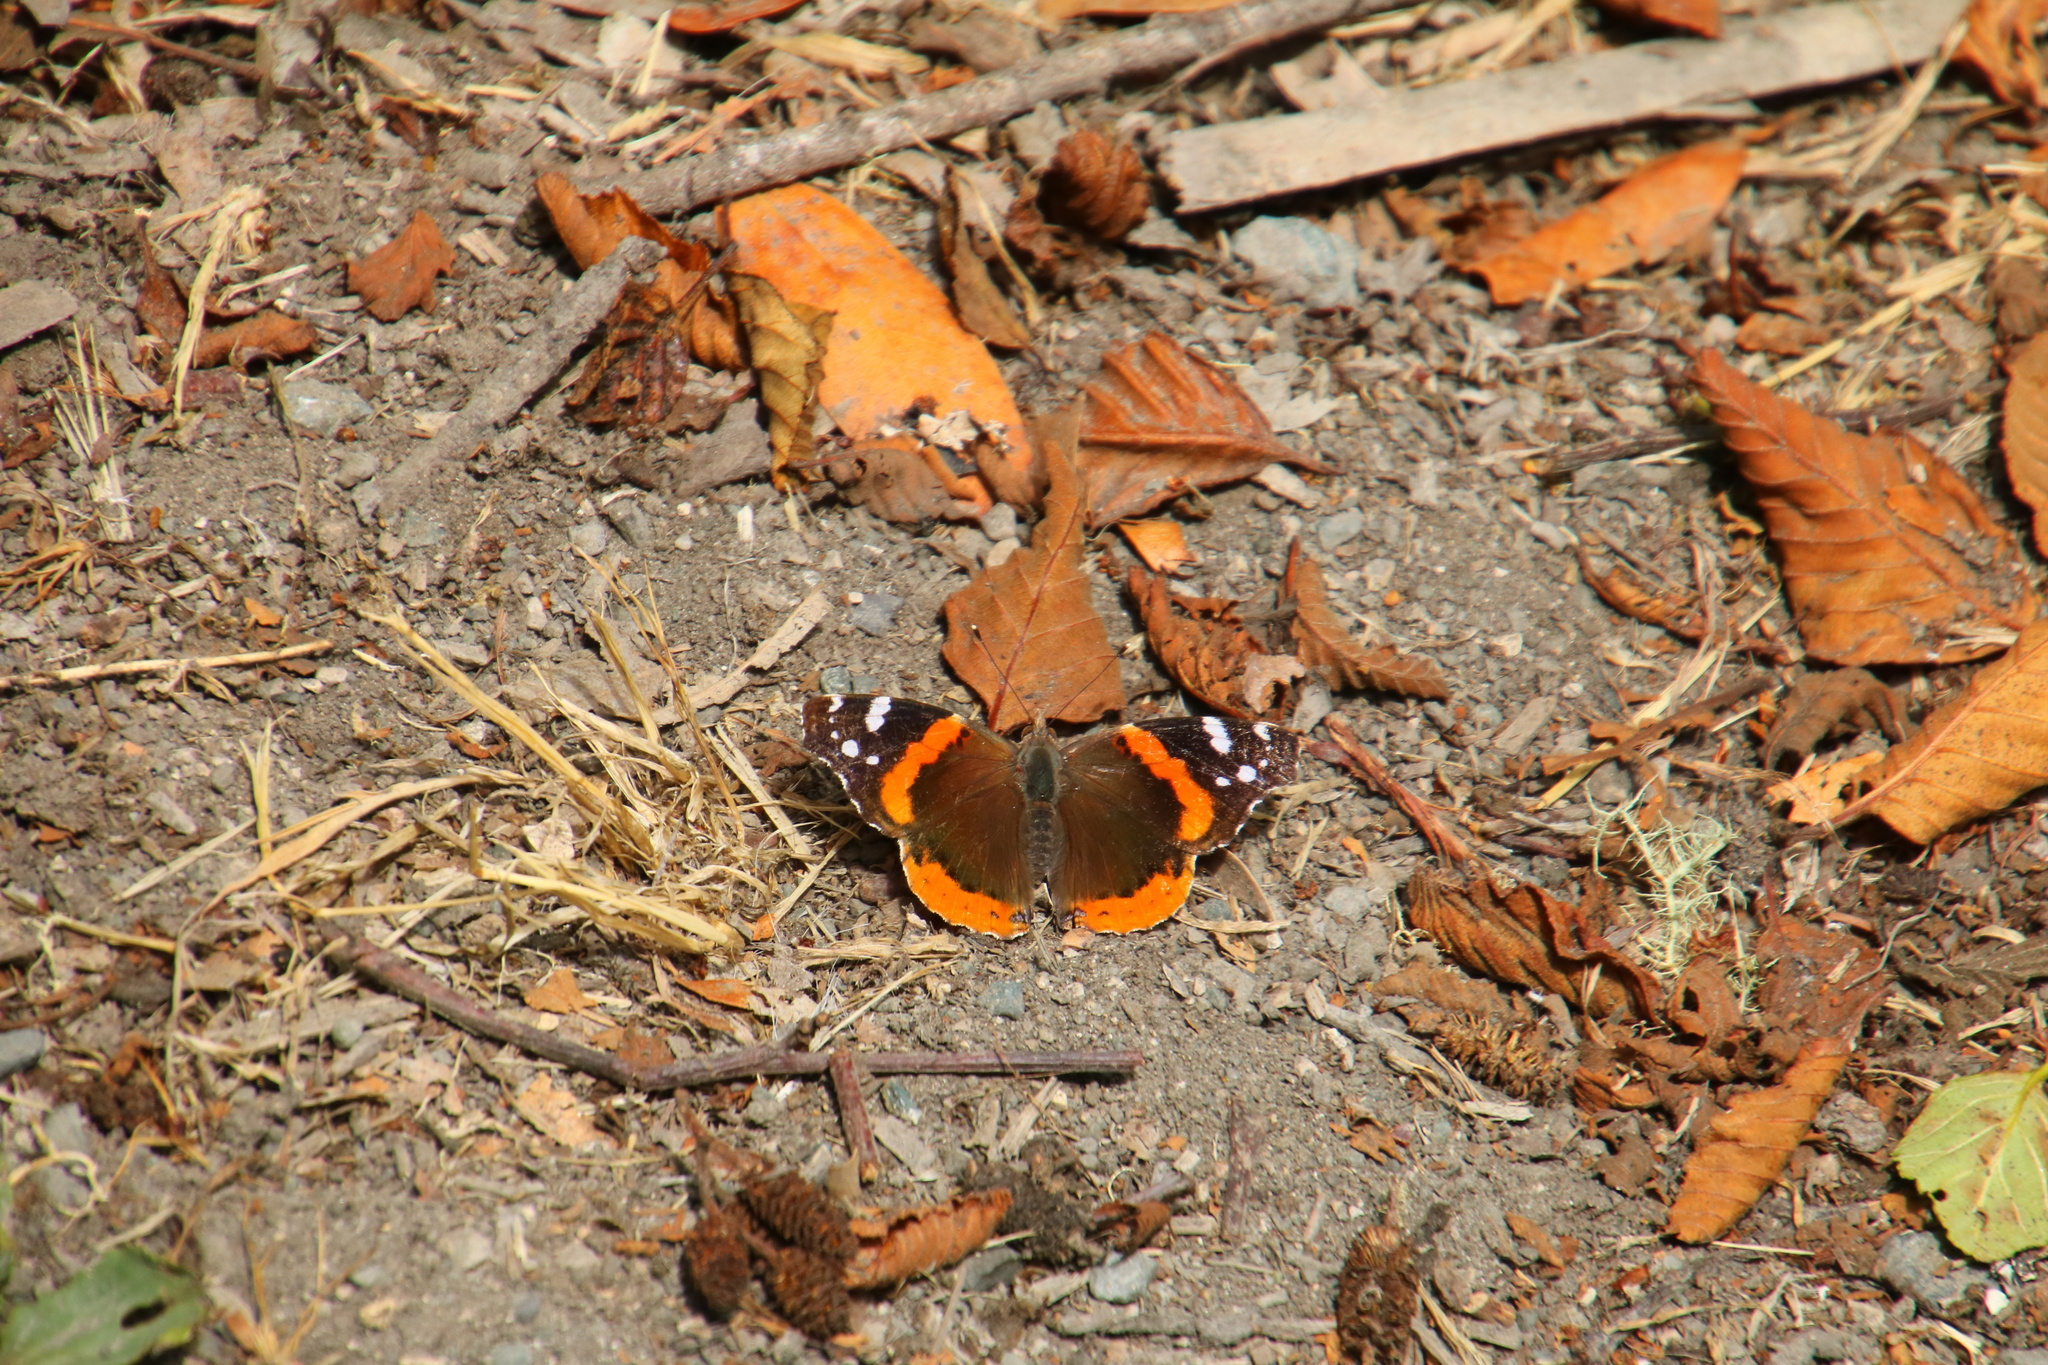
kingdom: Animalia
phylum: Arthropoda
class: Insecta
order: Lepidoptera
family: Nymphalidae
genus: Vanessa
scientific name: Vanessa atalanta
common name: Red admiral
